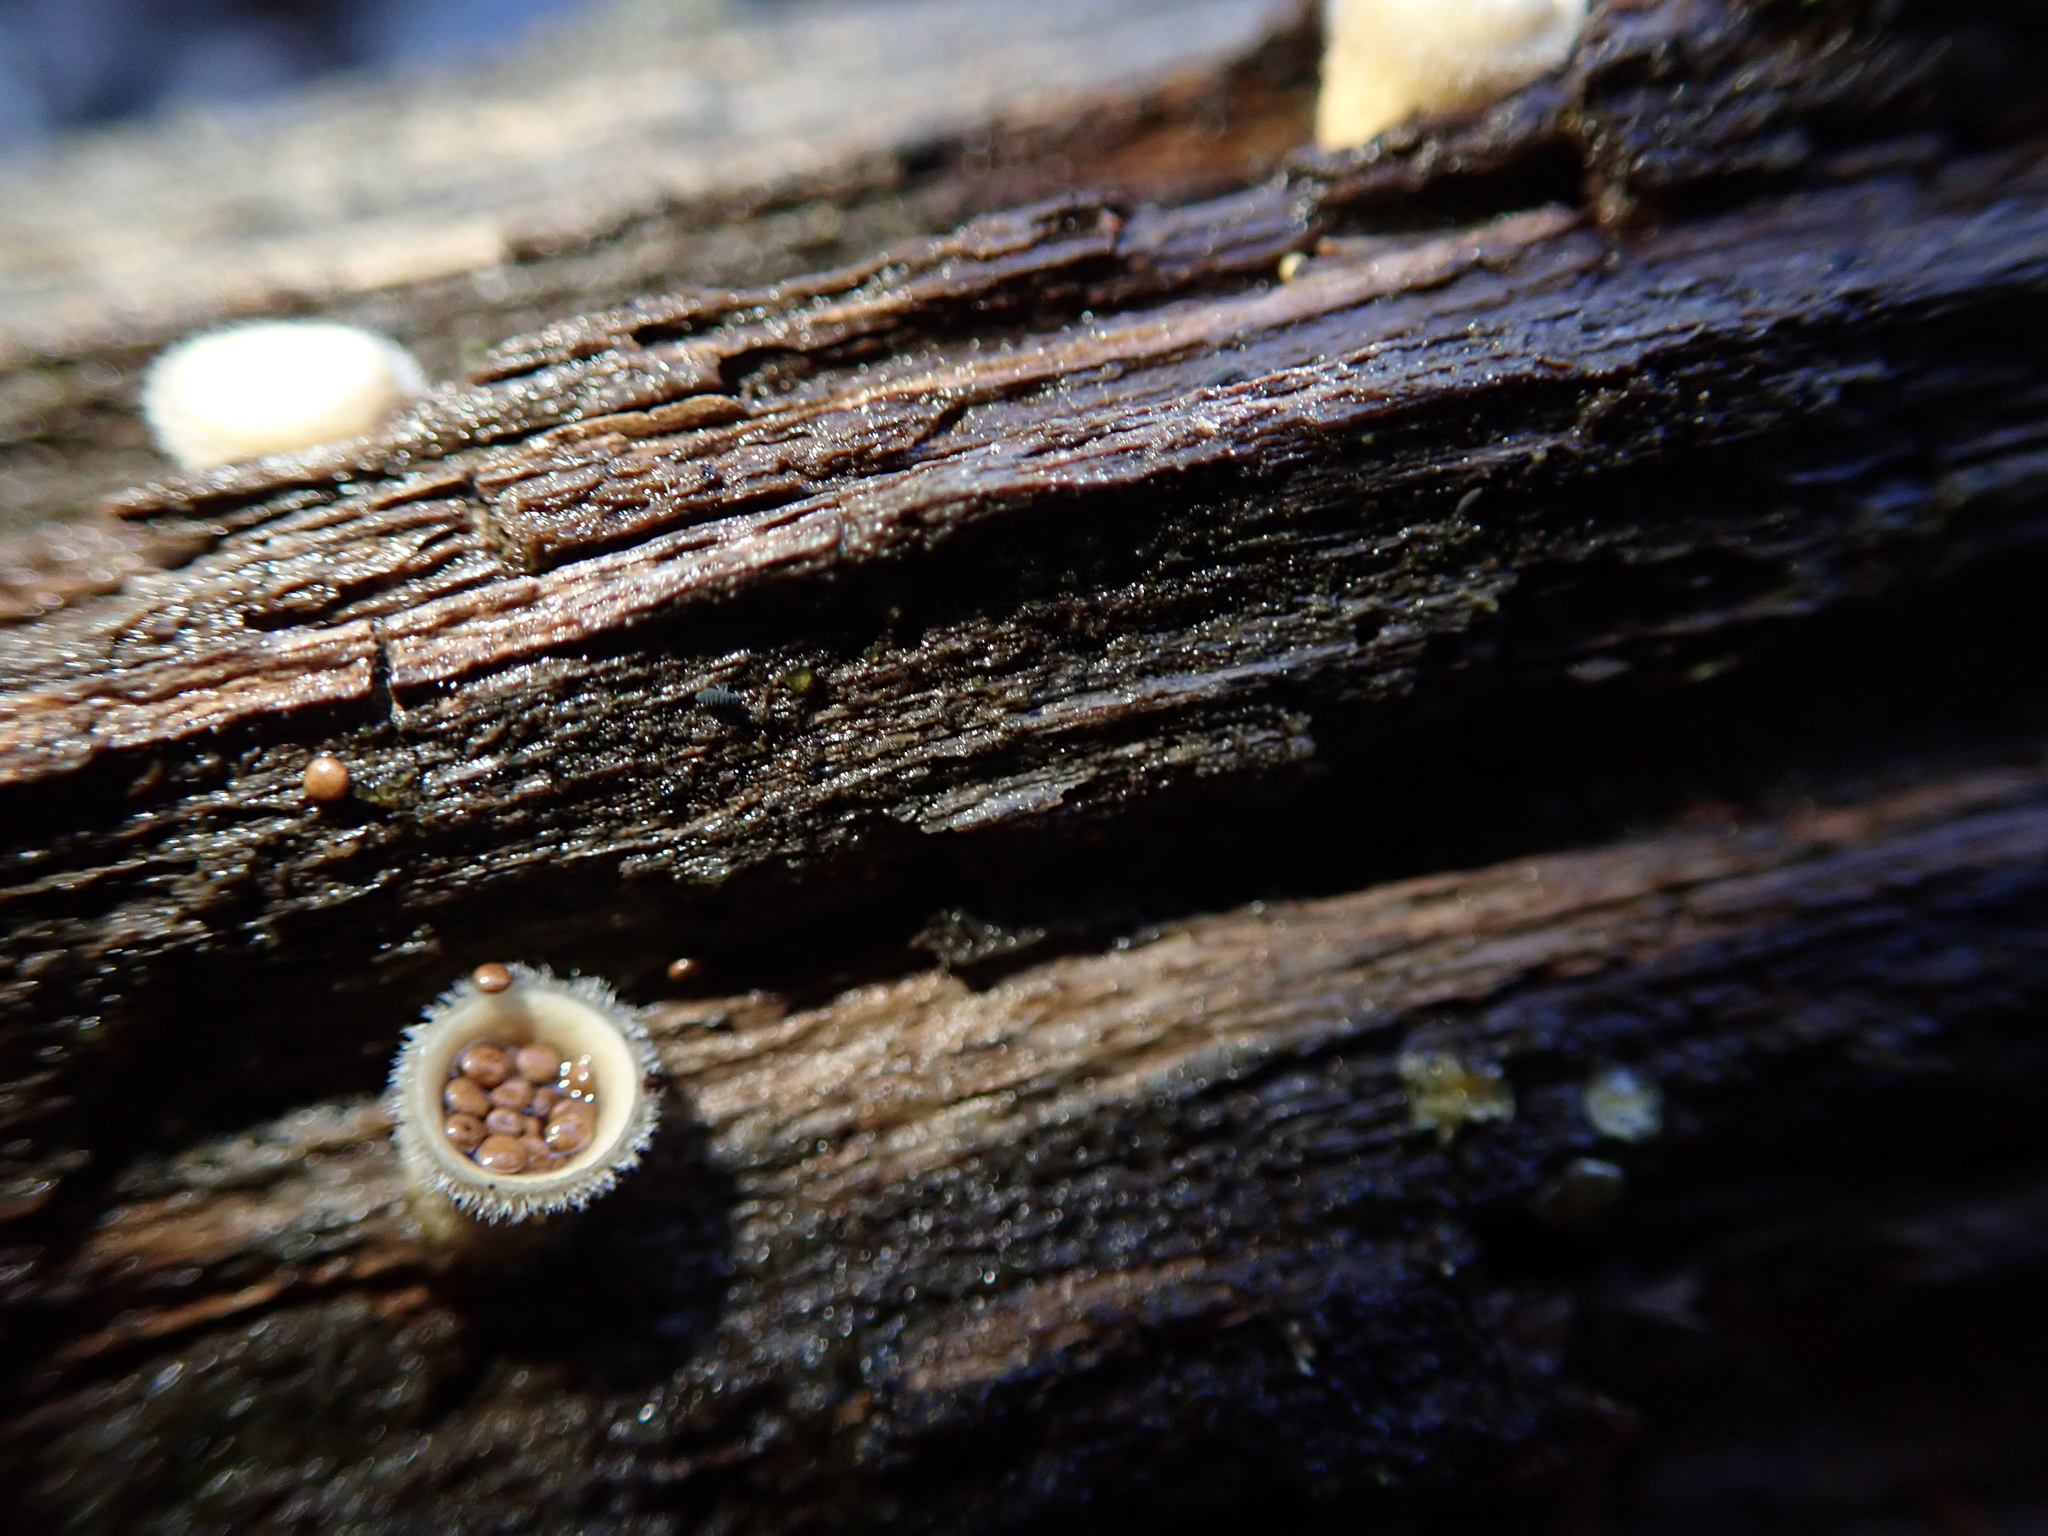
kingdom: Fungi
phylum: Basidiomycota
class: Agaricomycetes
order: Agaricales
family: Agaricaceae
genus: Nidula
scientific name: Nidula niveotomentosa
